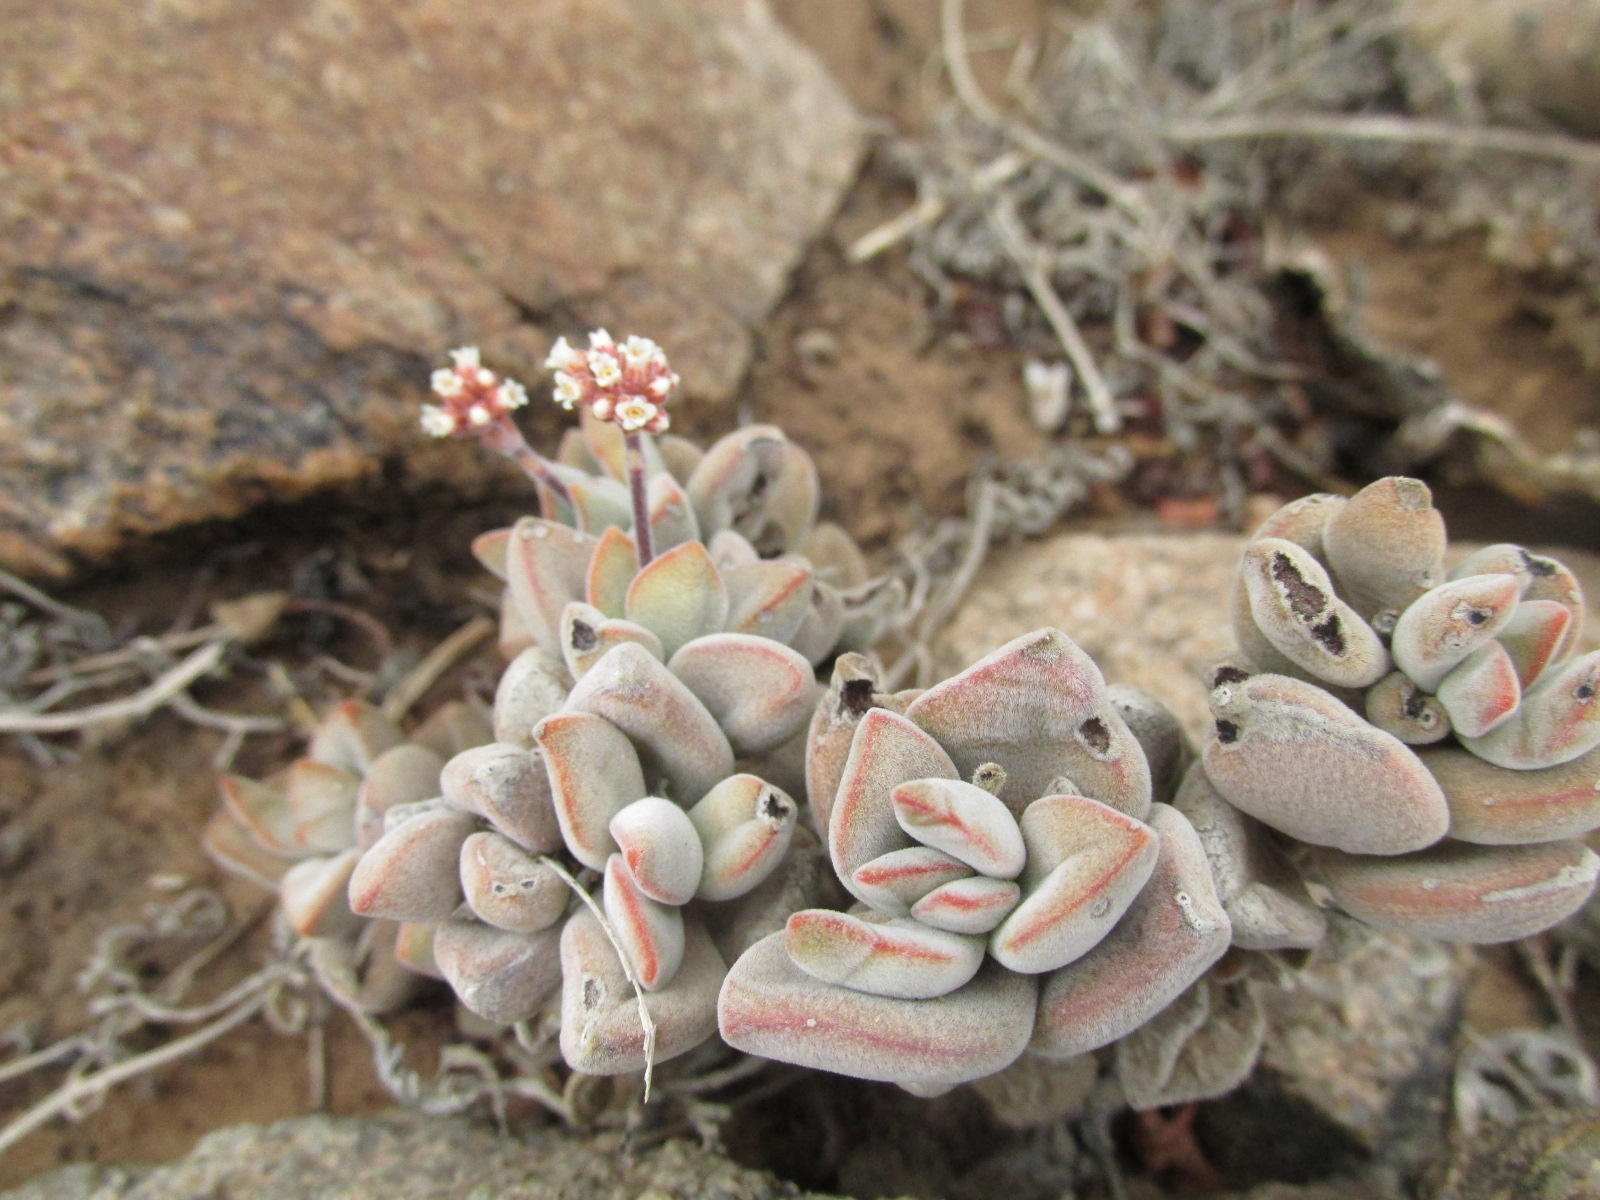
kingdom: Plantae
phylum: Tracheophyta
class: Magnoliopsida
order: Saxifragales
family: Crassulaceae
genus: Crassula
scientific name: Crassula sericea
